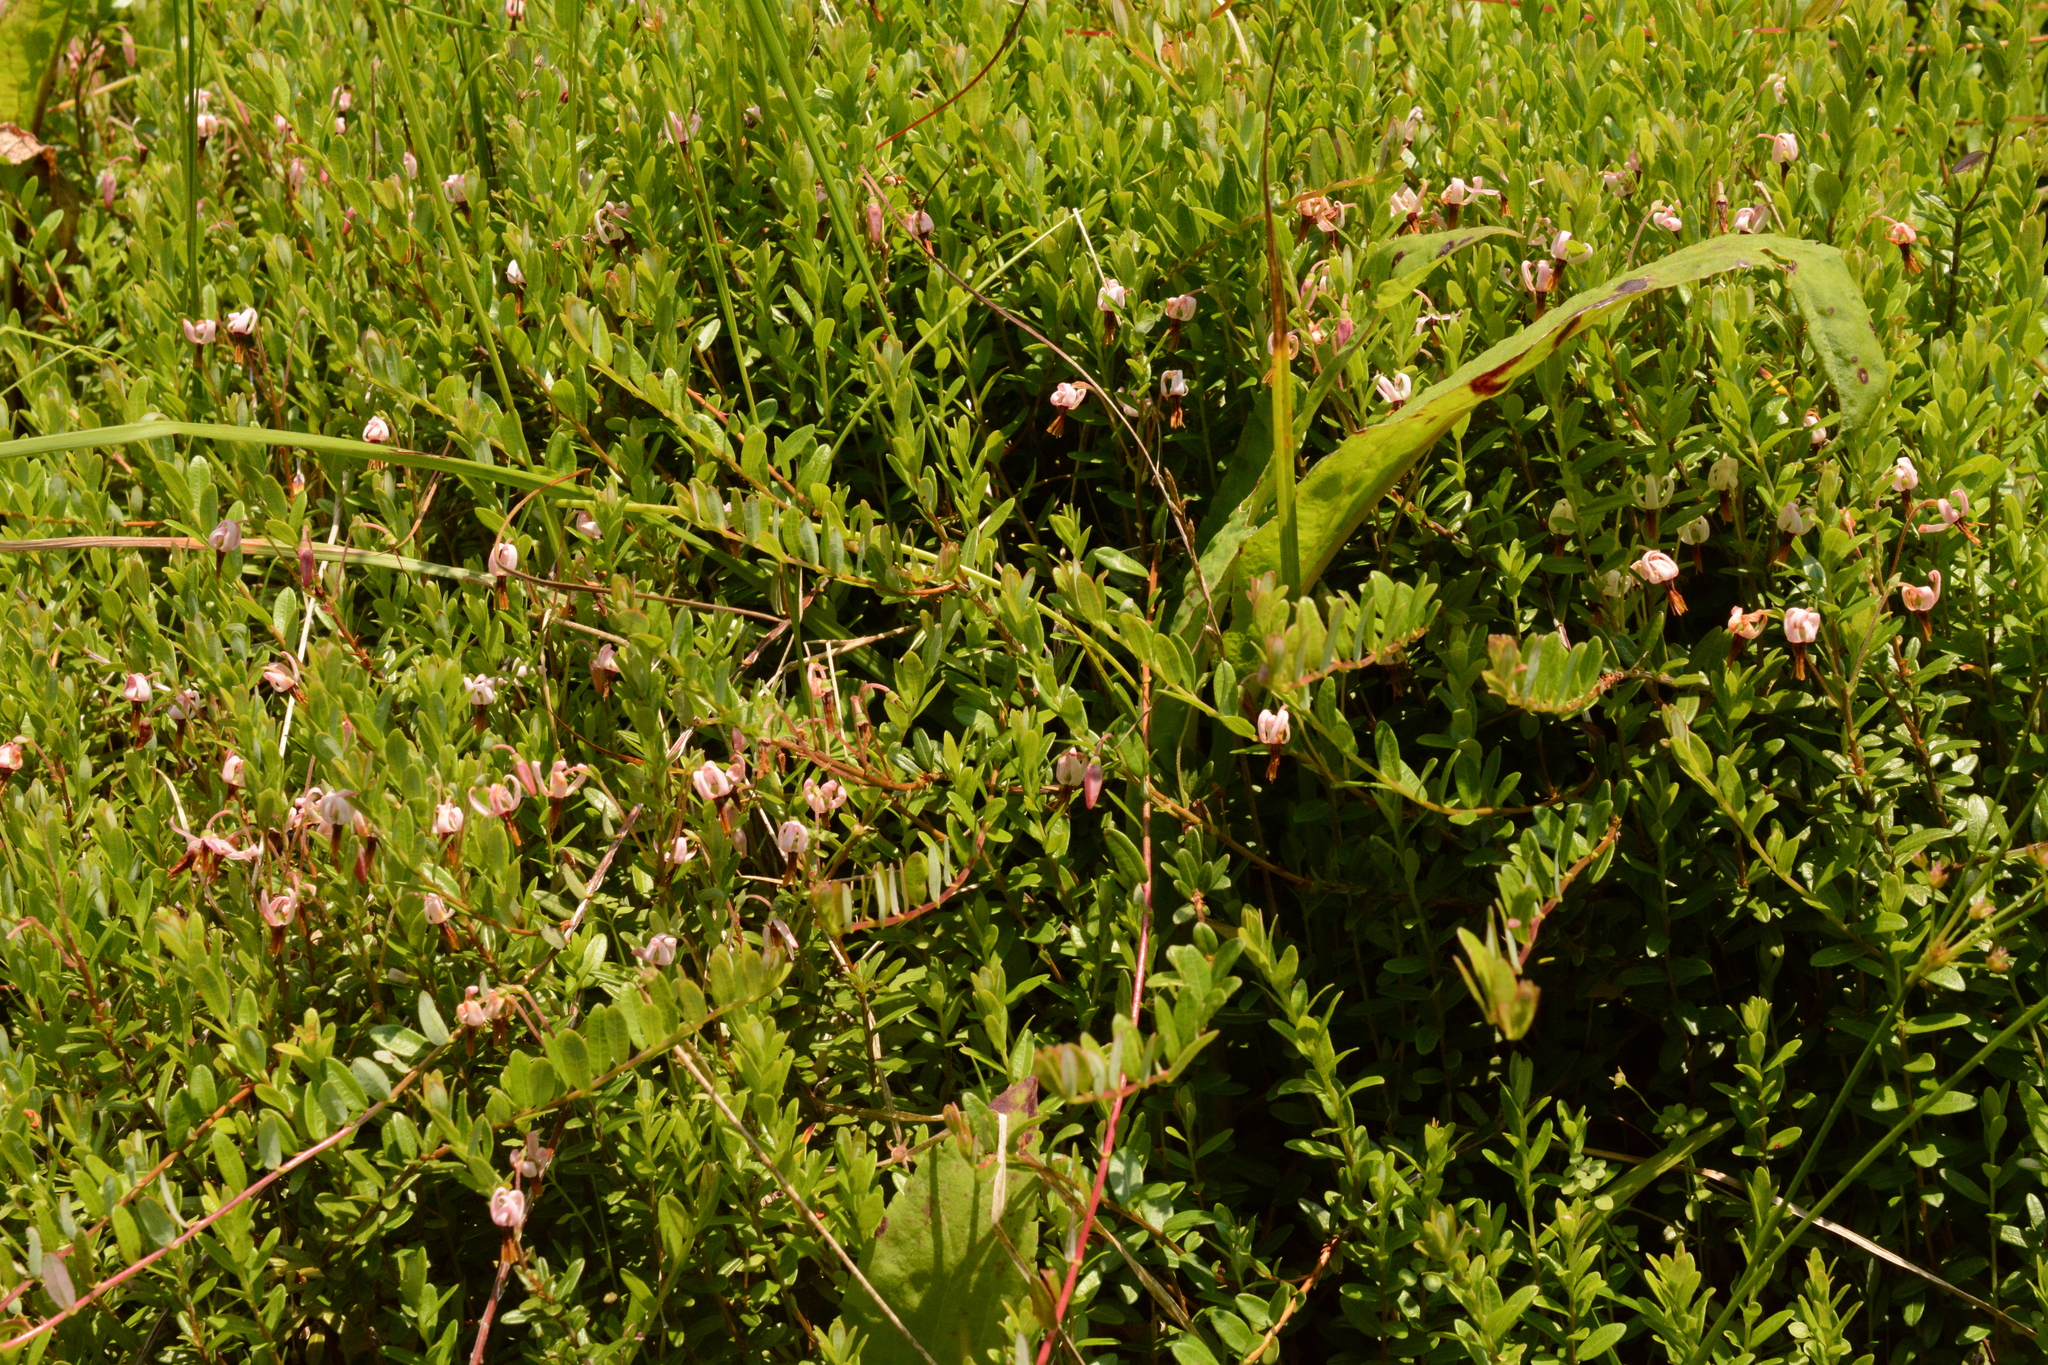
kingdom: Plantae
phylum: Tracheophyta
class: Magnoliopsida
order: Ericales
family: Ericaceae
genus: Vaccinium
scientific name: Vaccinium macrocarpon
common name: American cranberry
